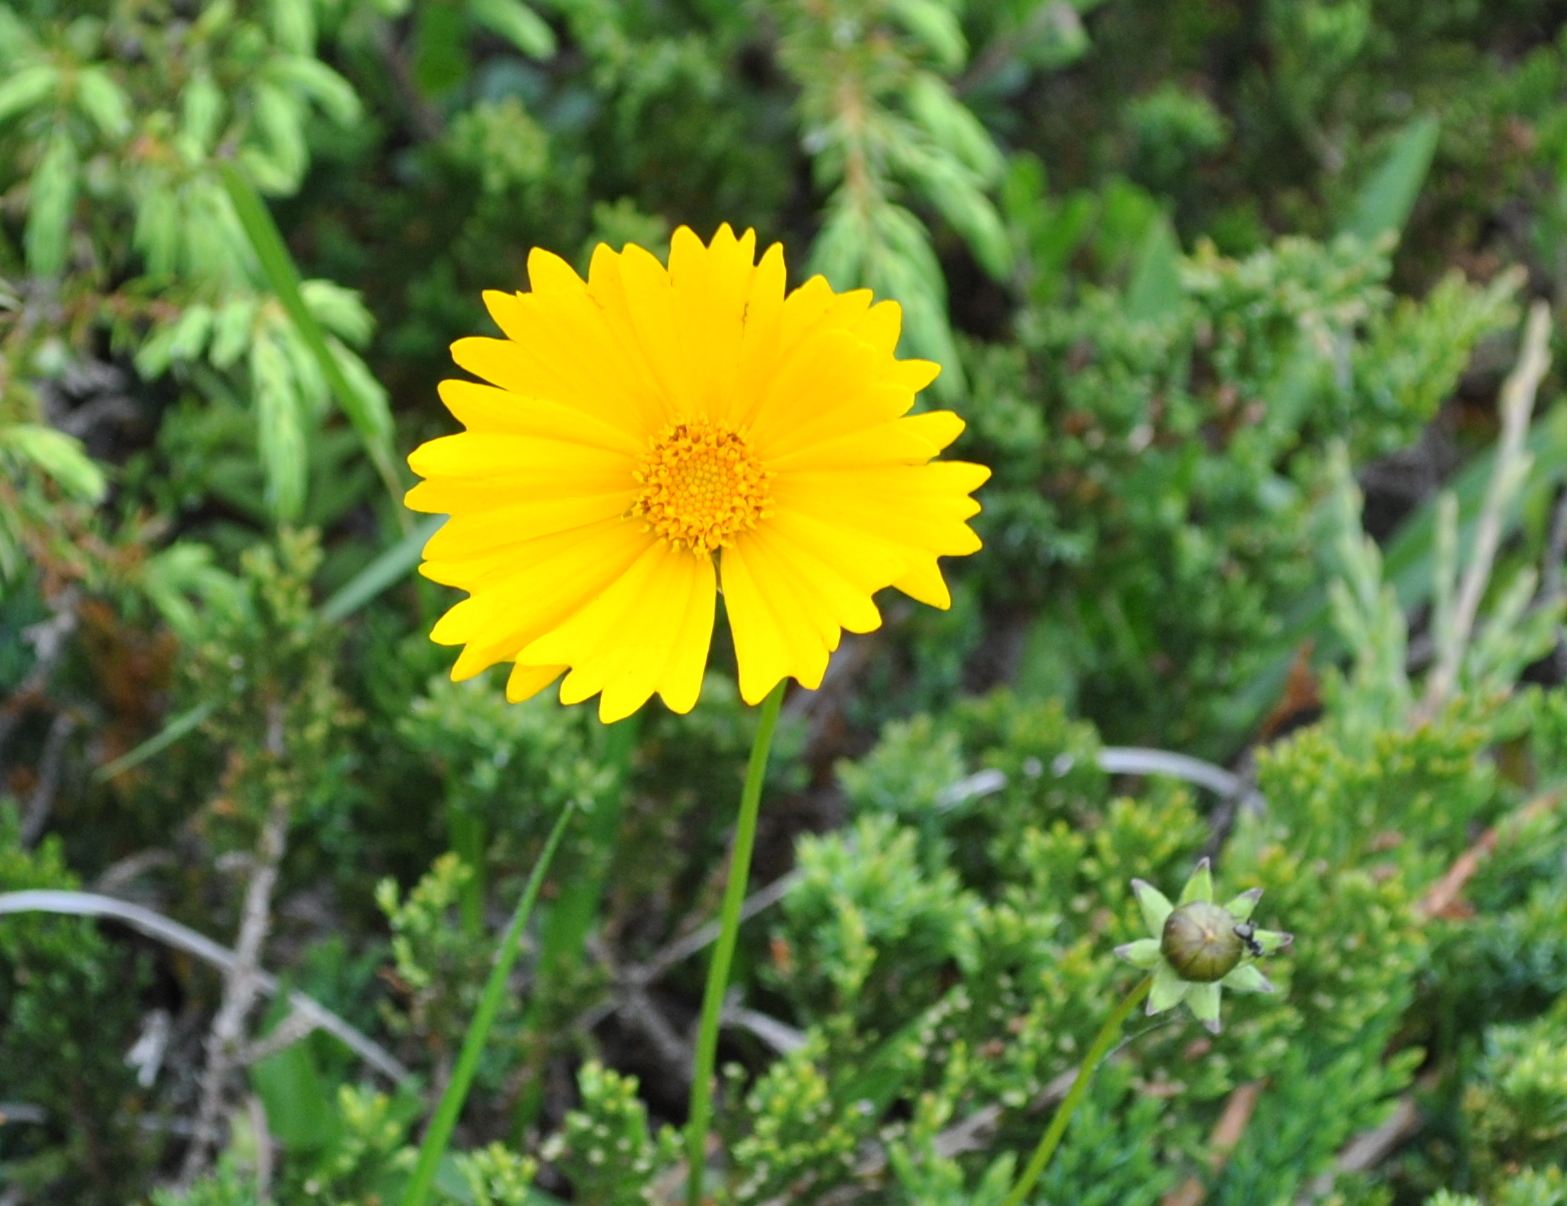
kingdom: Plantae
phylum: Tracheophyta
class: Magnoliopsida
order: Asterales
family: Asteraceae
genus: Coreopsis
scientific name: Coreopsis lanceolata
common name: Garden coreopsis
